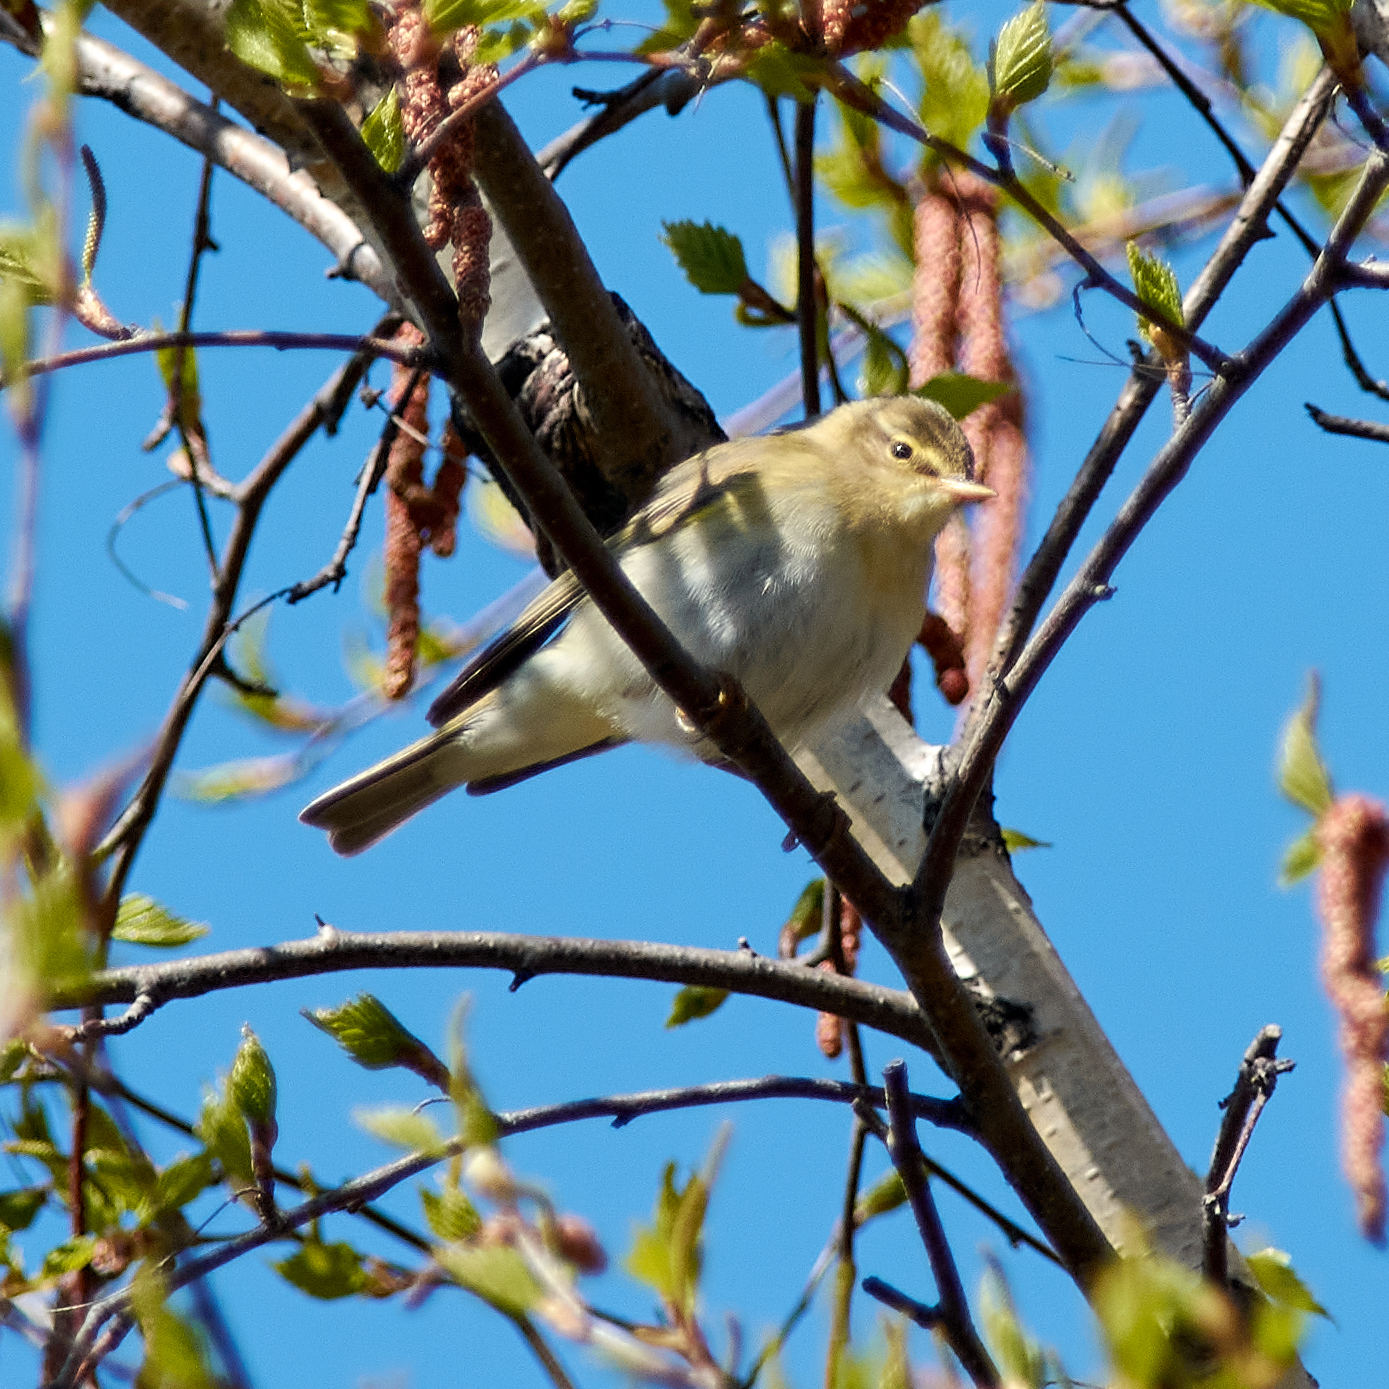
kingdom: Animalia
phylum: Chordata
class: Aves
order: Passeriformes
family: Phylloscopidae
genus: Phylloscopus
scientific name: Phylloscopus trochilus
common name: Willow warbler
